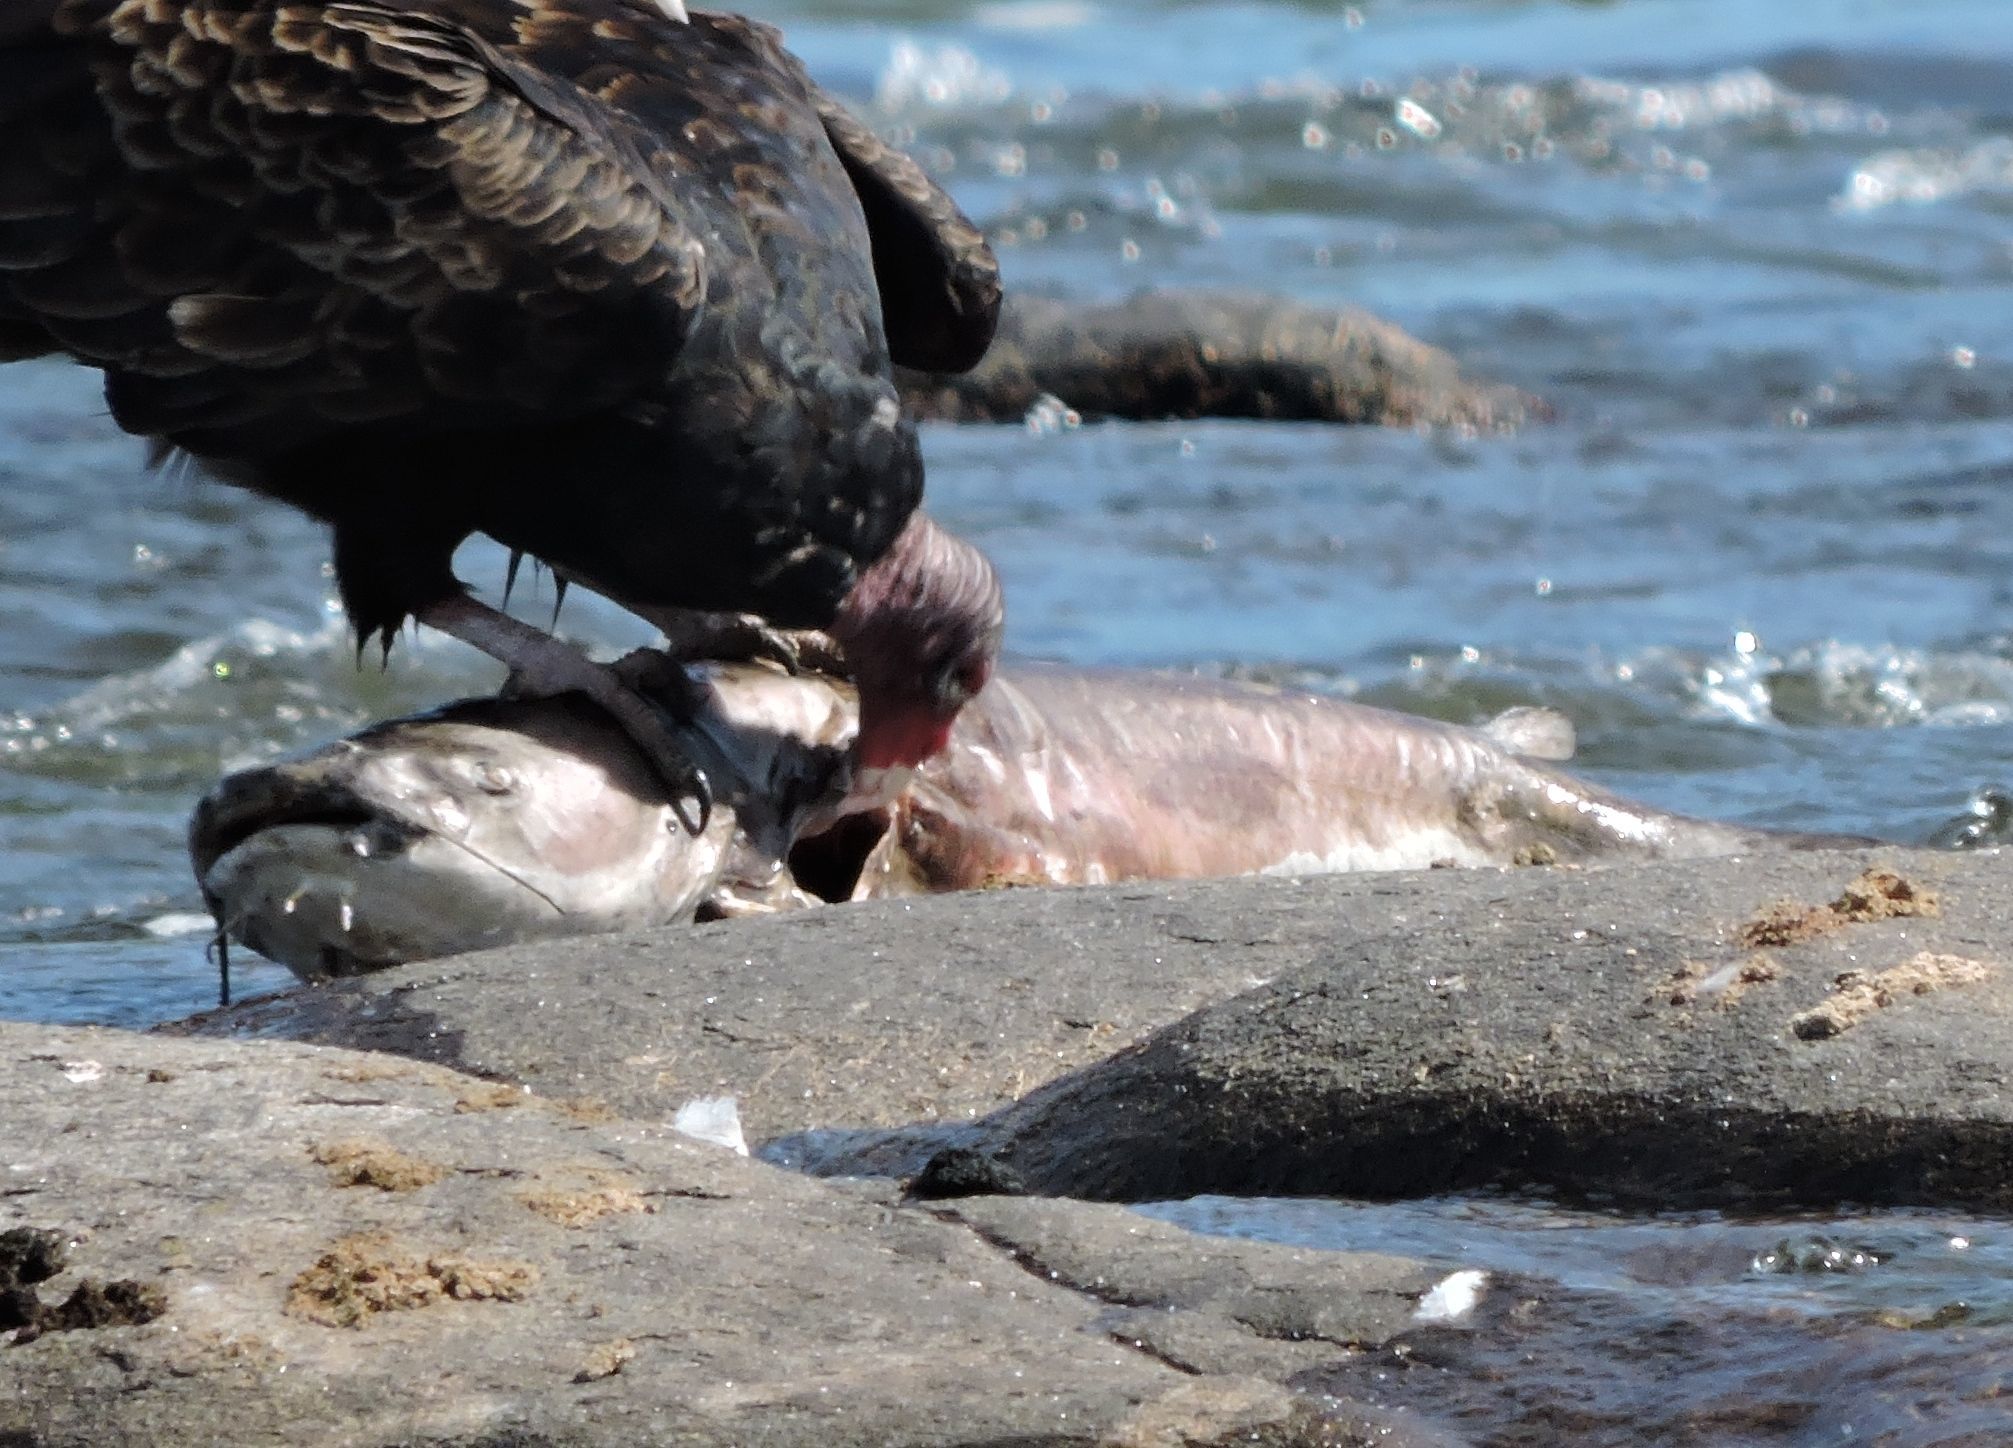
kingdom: Animalia
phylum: Chordata
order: Siluriformes
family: Ictaluridae
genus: Ictalurus
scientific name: Ictalurus furcatus
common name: Blue catfish
